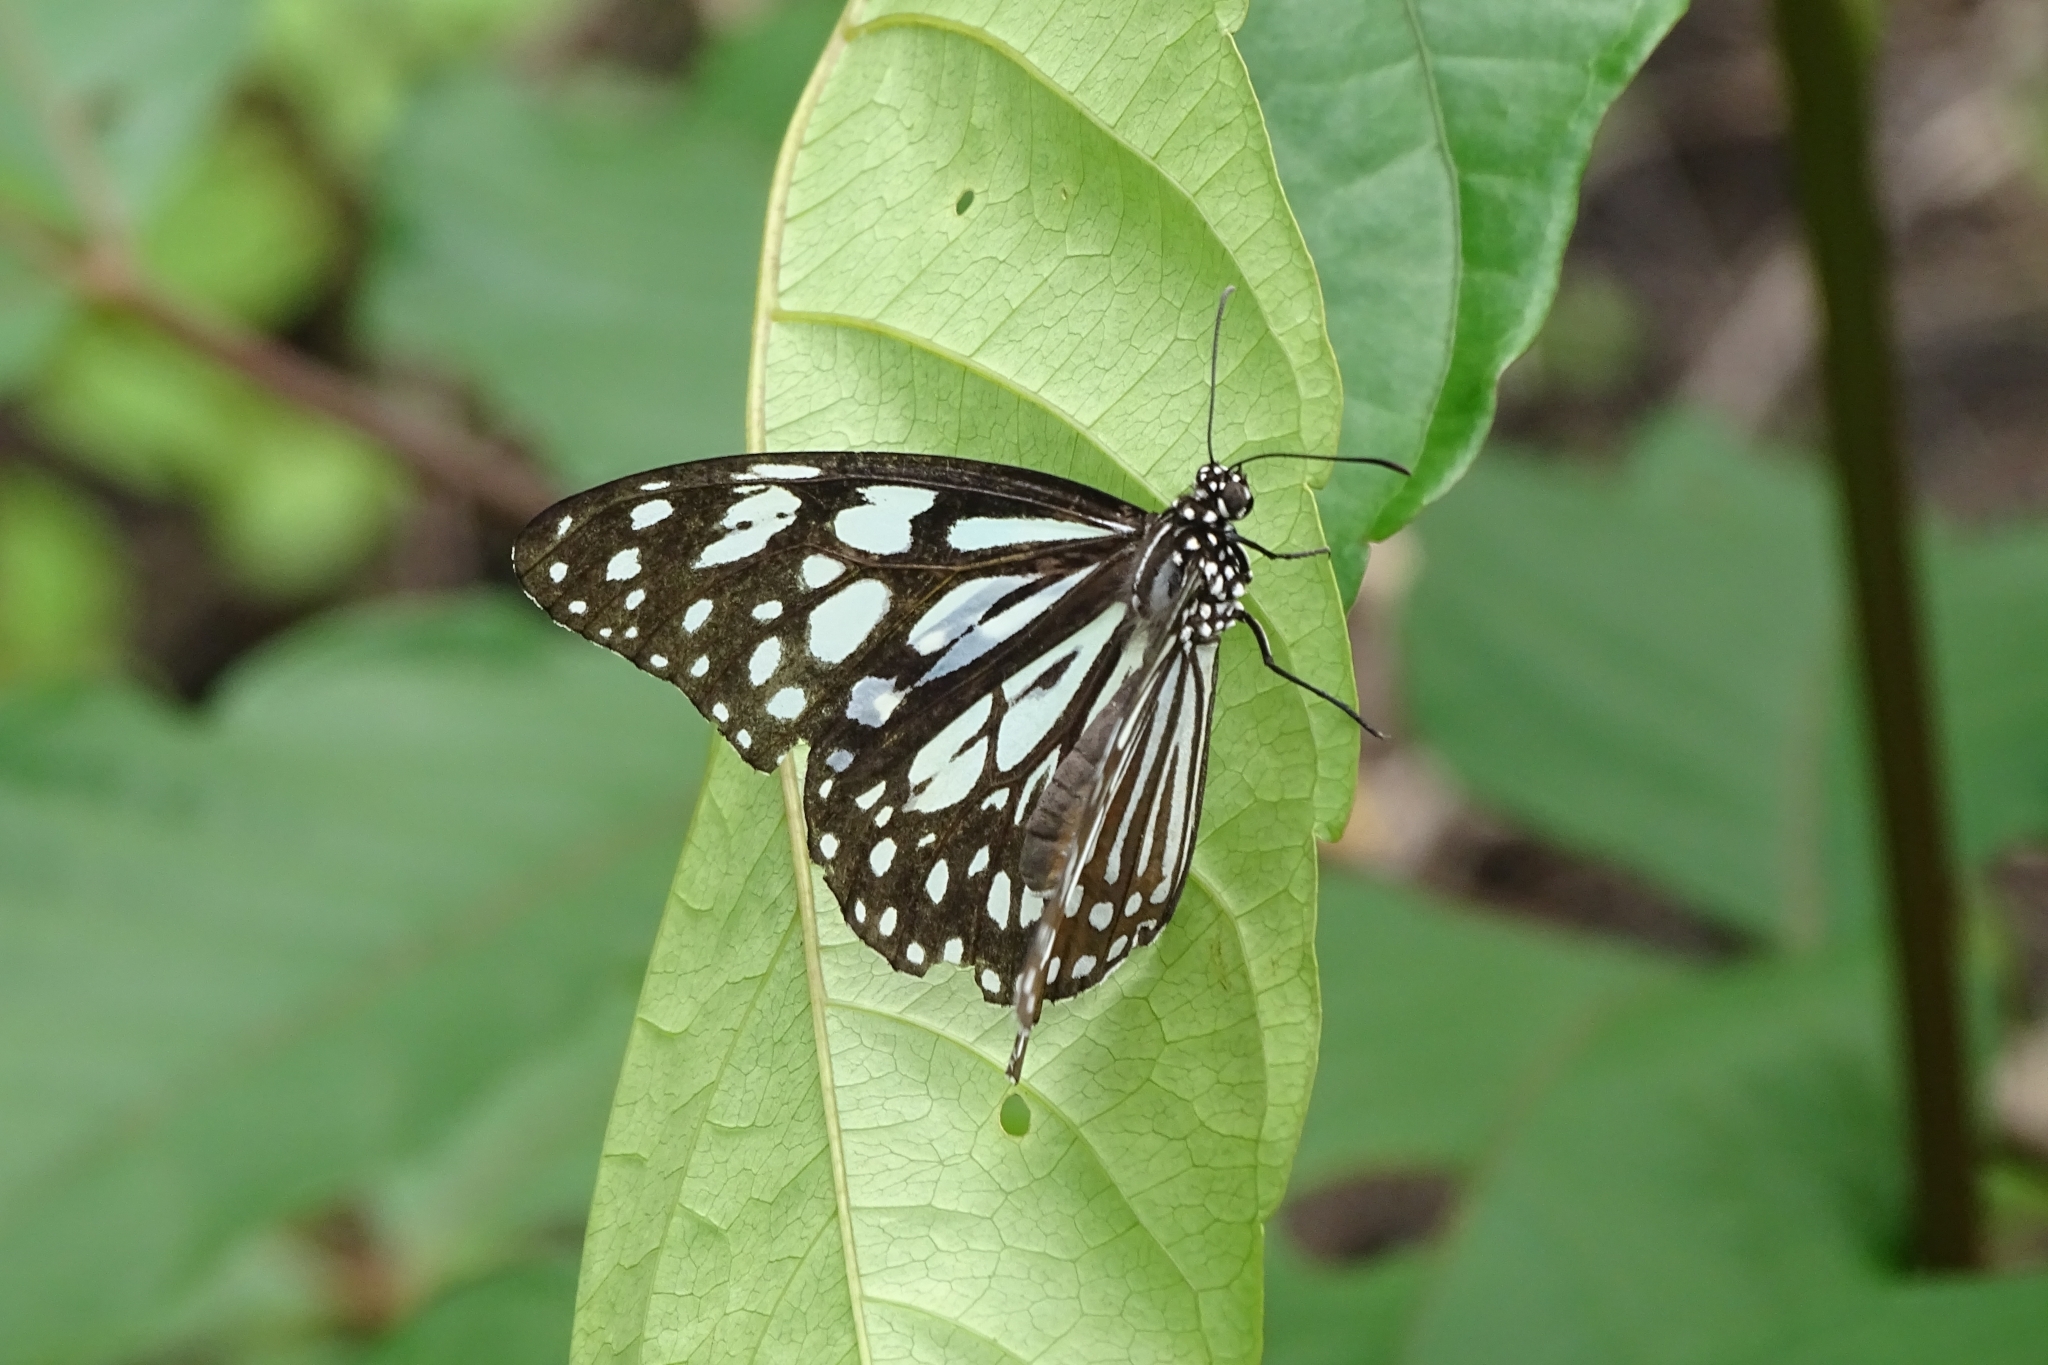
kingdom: Animalia
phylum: Arthropoda
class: Insecta
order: Lepidoptera
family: Nymphalidae
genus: Tirumala
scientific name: Tirumala limniace
